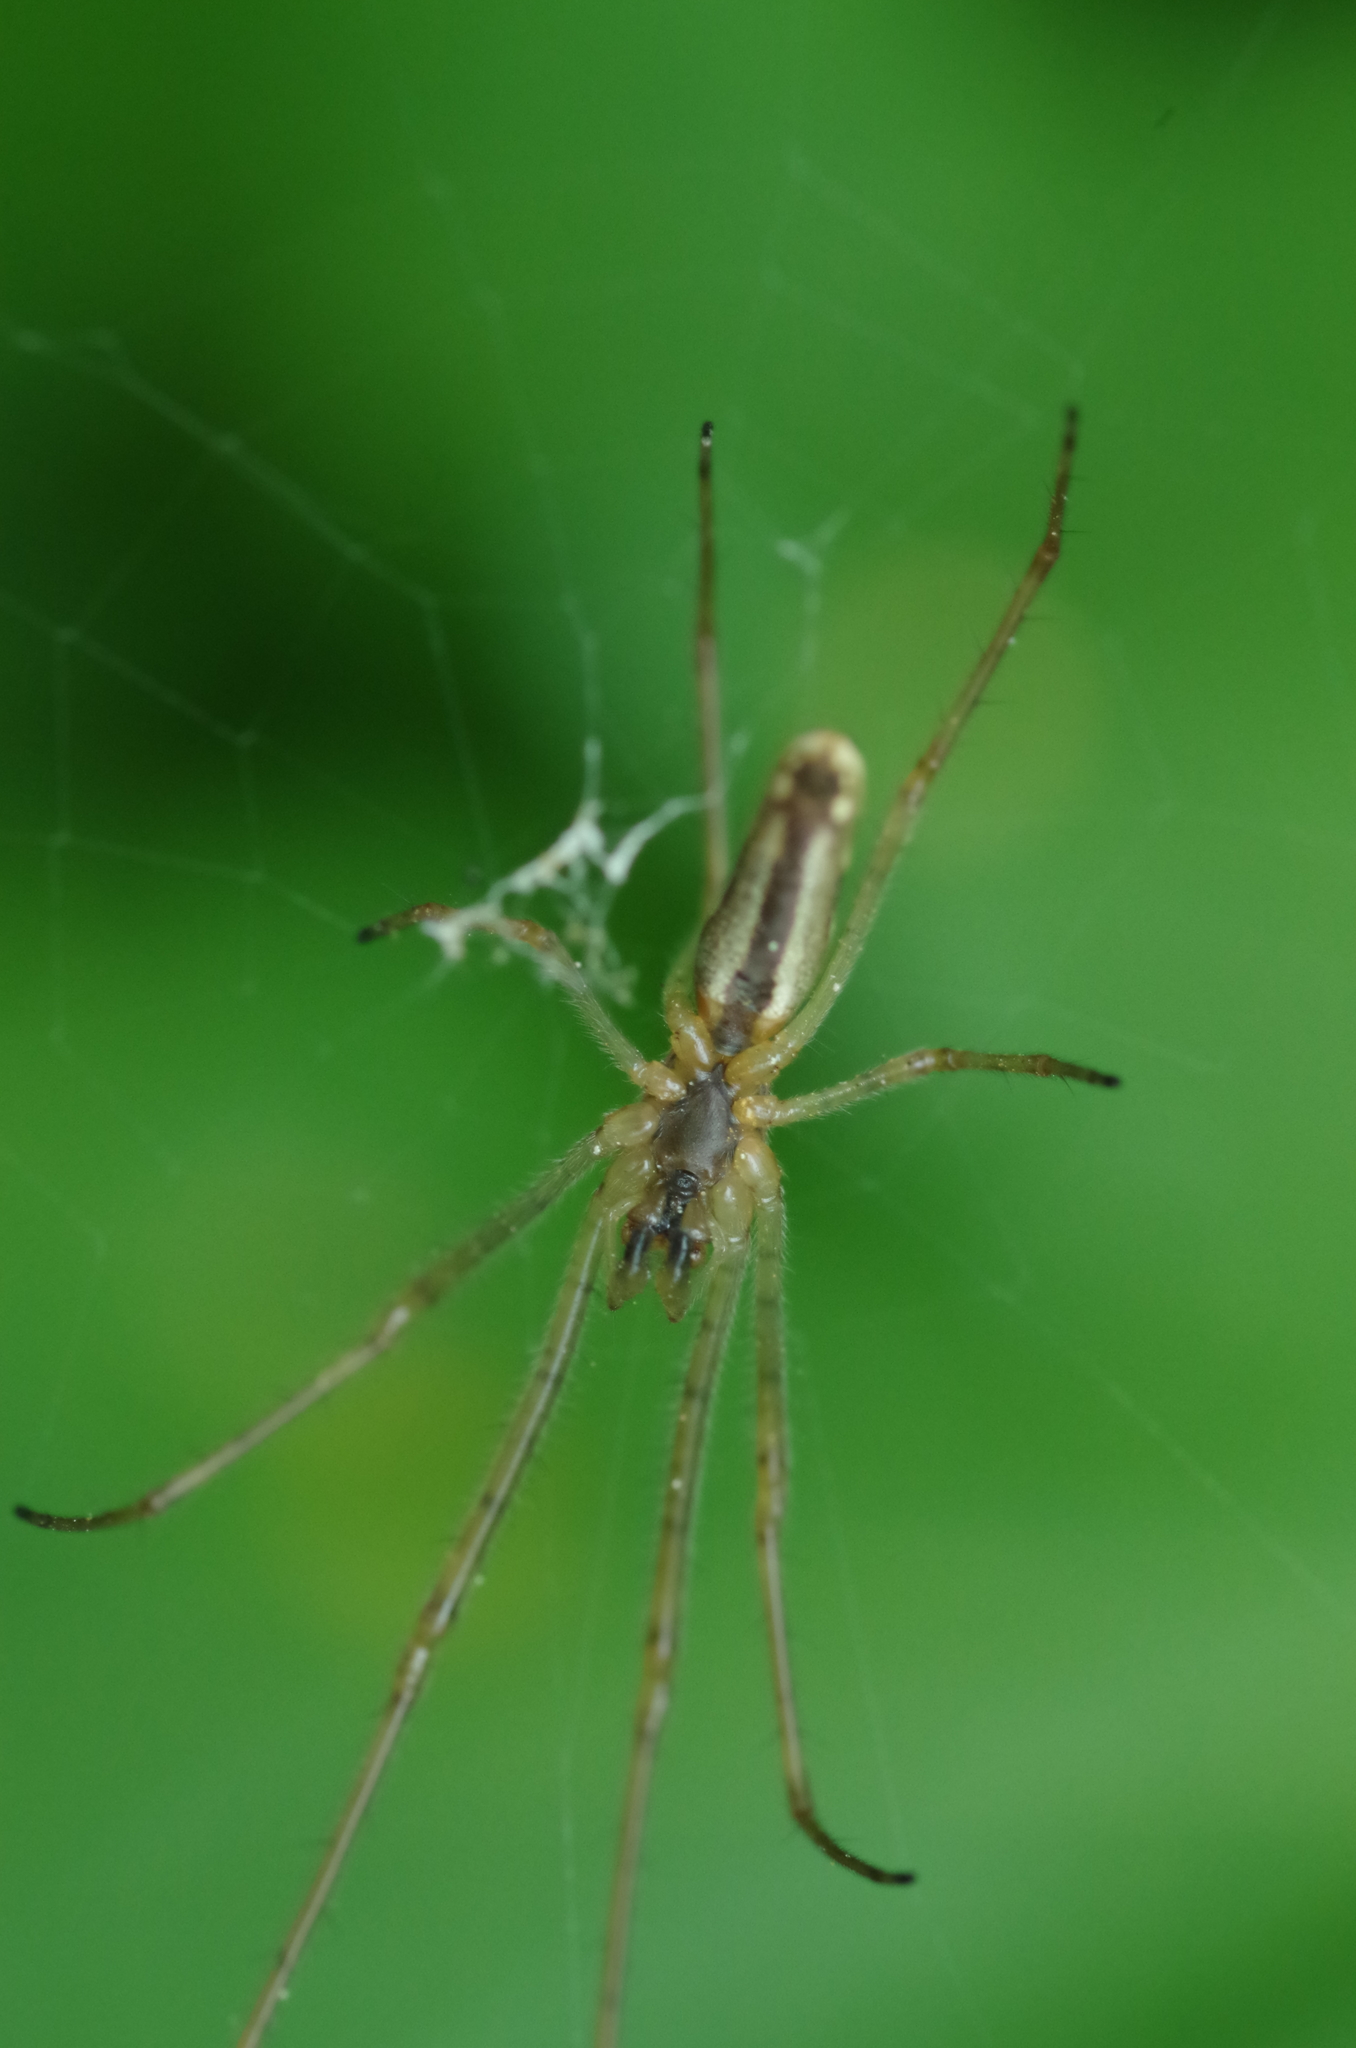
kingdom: Animalia
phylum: Arthropoda
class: Arachnida
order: Araneae
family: Tetragnathidae
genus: Tetragnatha
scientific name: Tetragnatha
